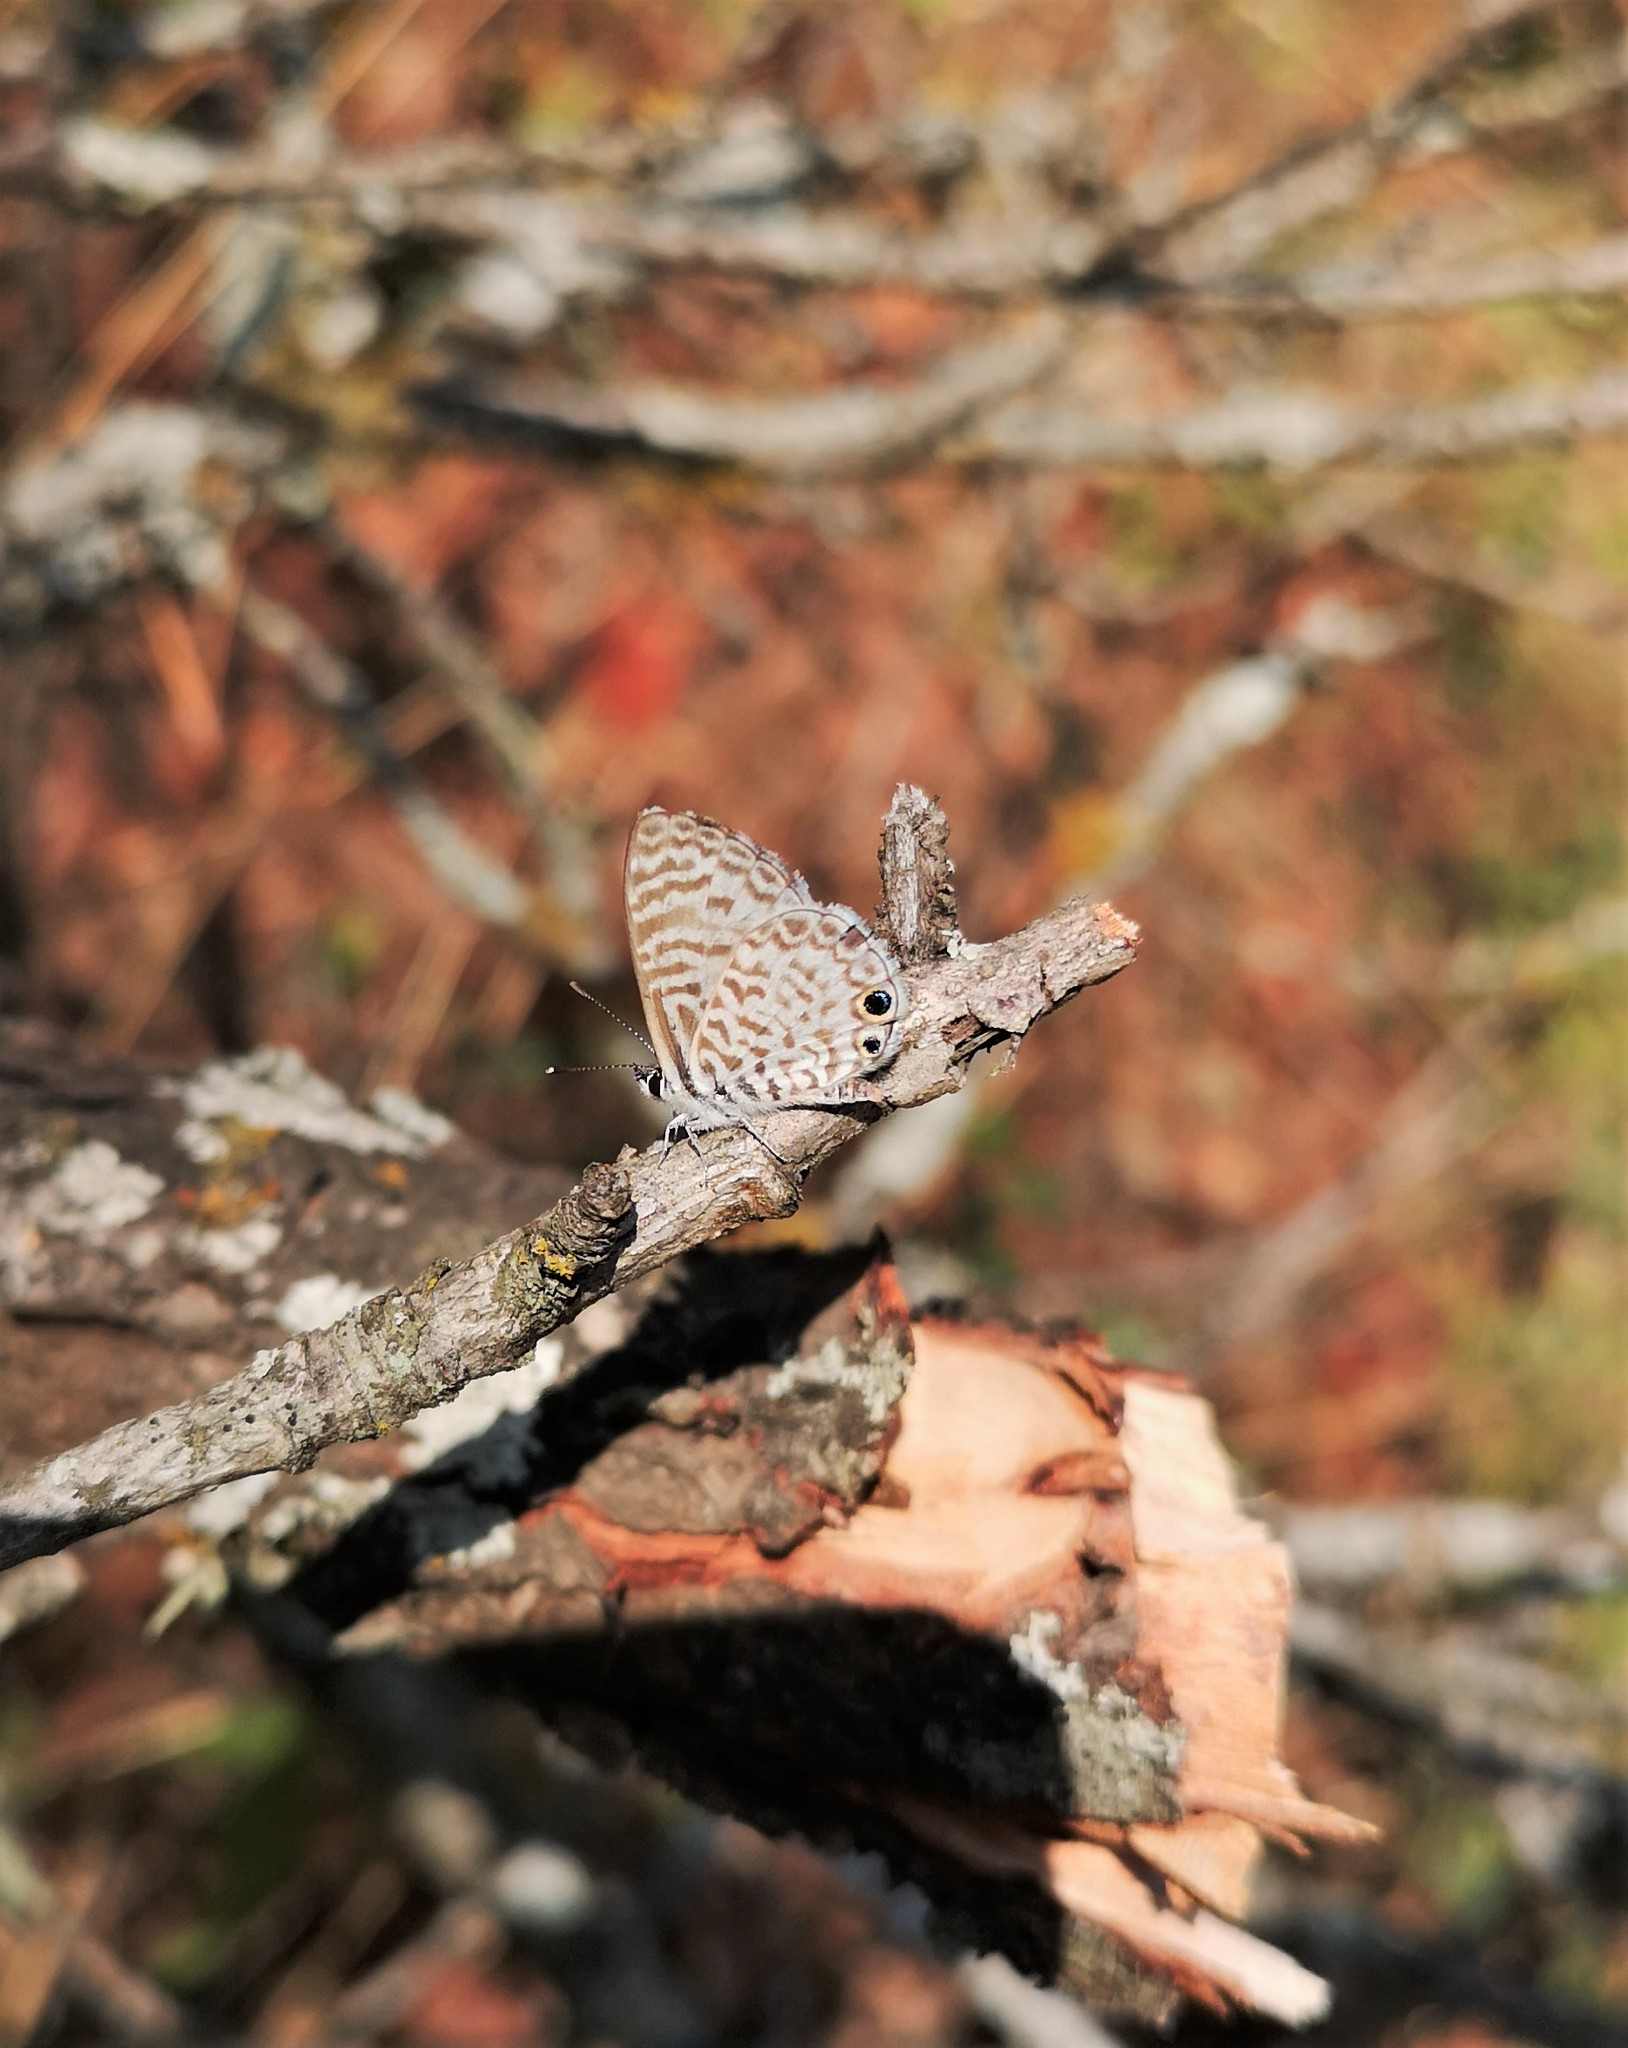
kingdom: Animalia
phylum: Arthropoda
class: Insecta
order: Lepidoptera
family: Lycaenidae
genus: Leptotes
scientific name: Leptotes theonus
